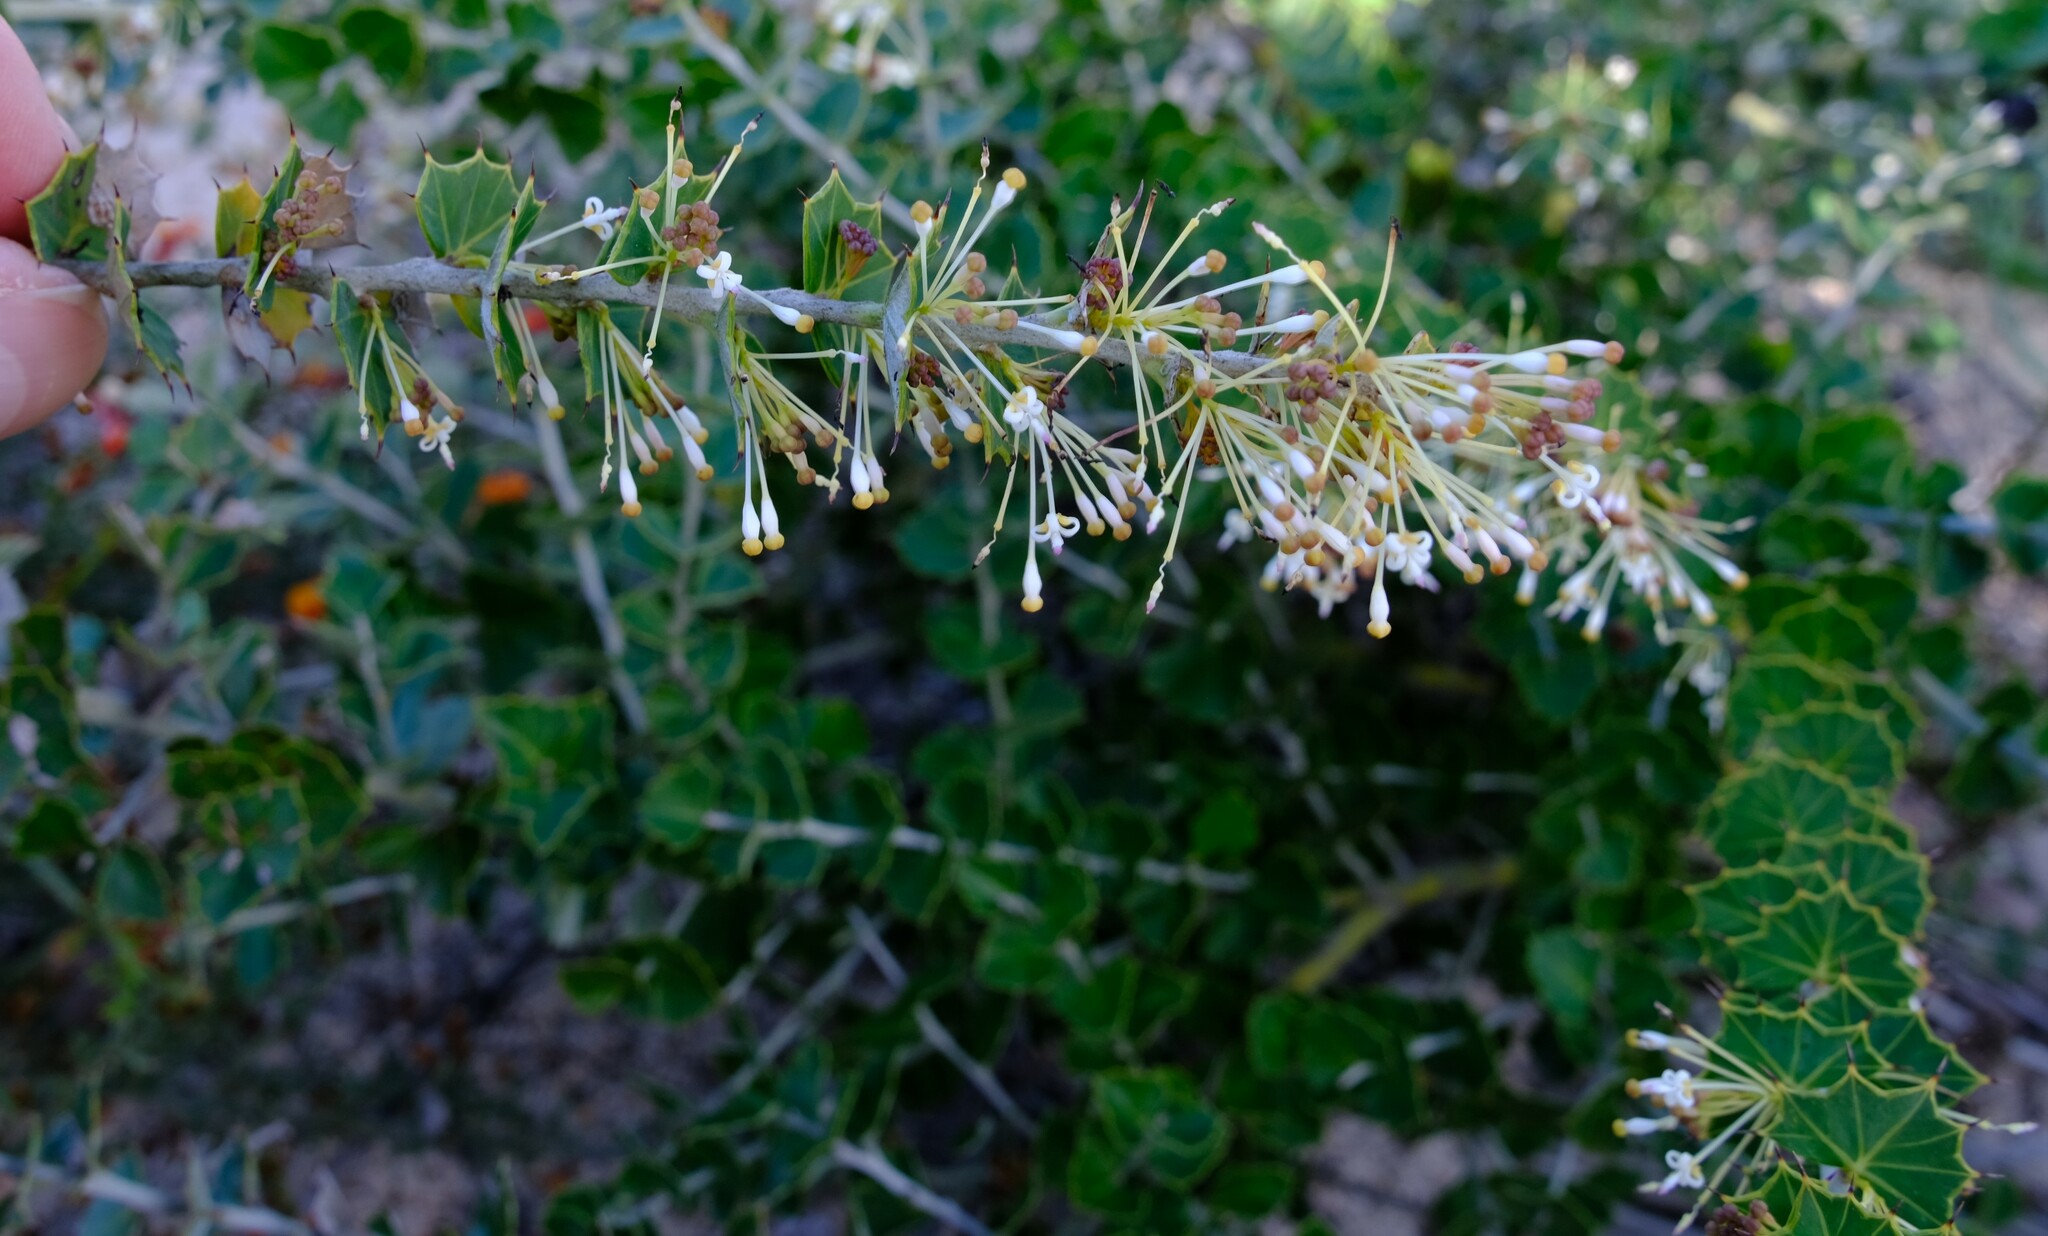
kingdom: Plantae
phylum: Tracheophyta
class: Magnoliopsida
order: Proteales
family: Proteaceae
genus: Grevillea
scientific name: Grevillea uniformis
